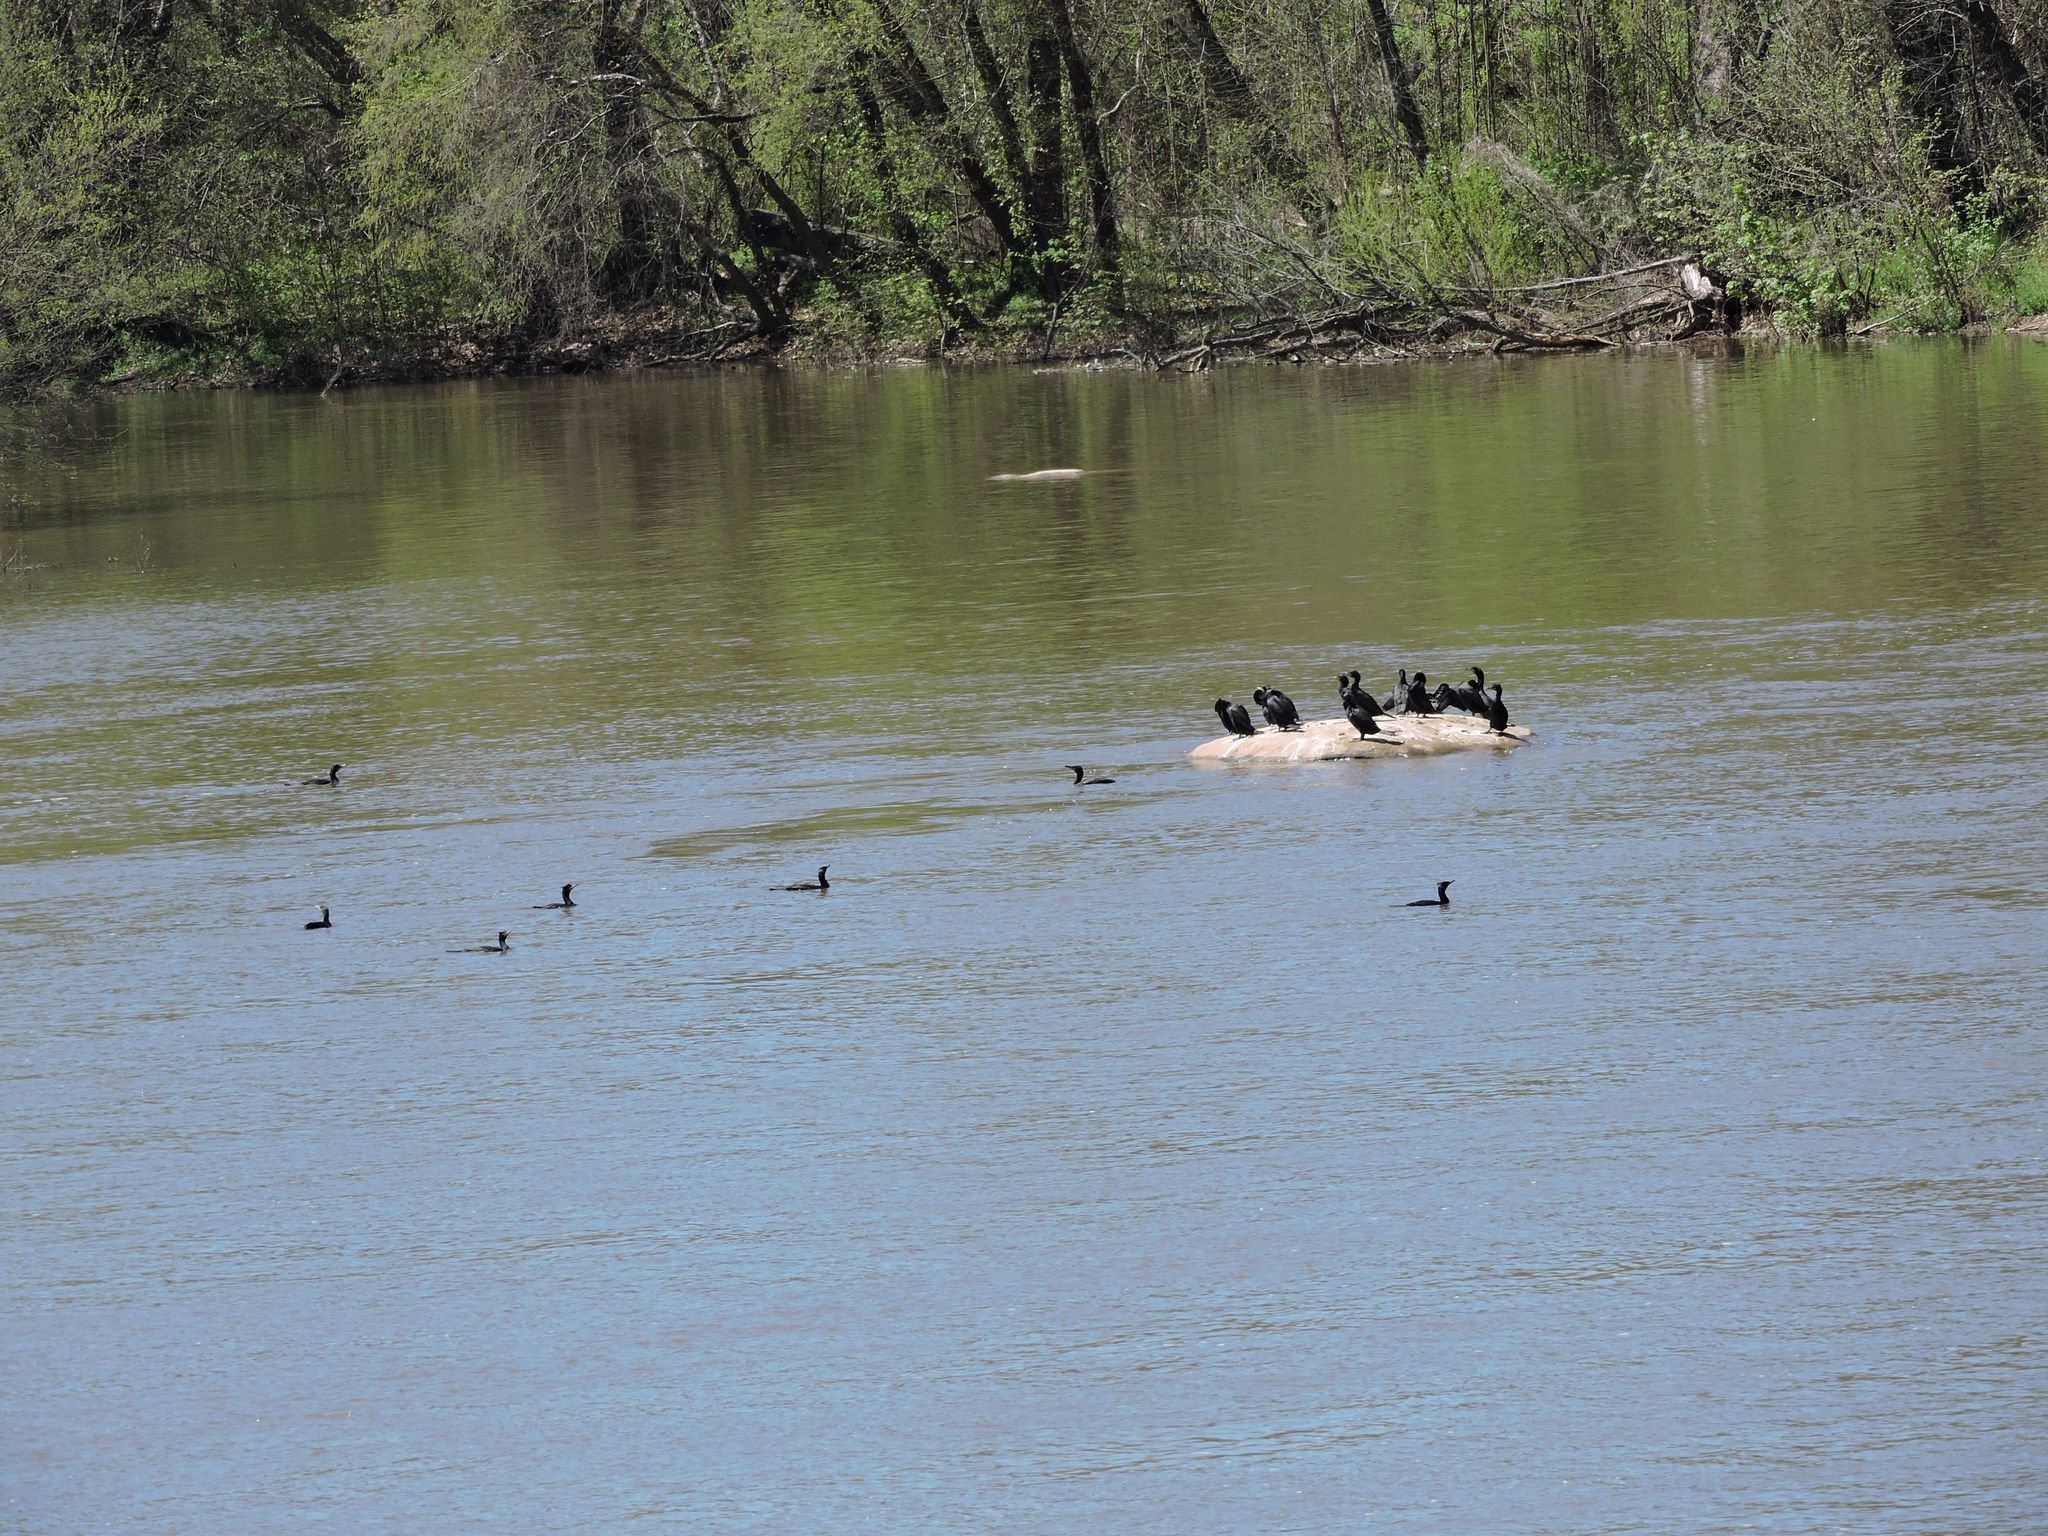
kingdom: Animalia
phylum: Chordata
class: Aves
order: Suliformes
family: Phalacrocoracidae
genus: Phalacrocorax
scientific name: Phalacrocorax auritus
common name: Double-crested cormorant
